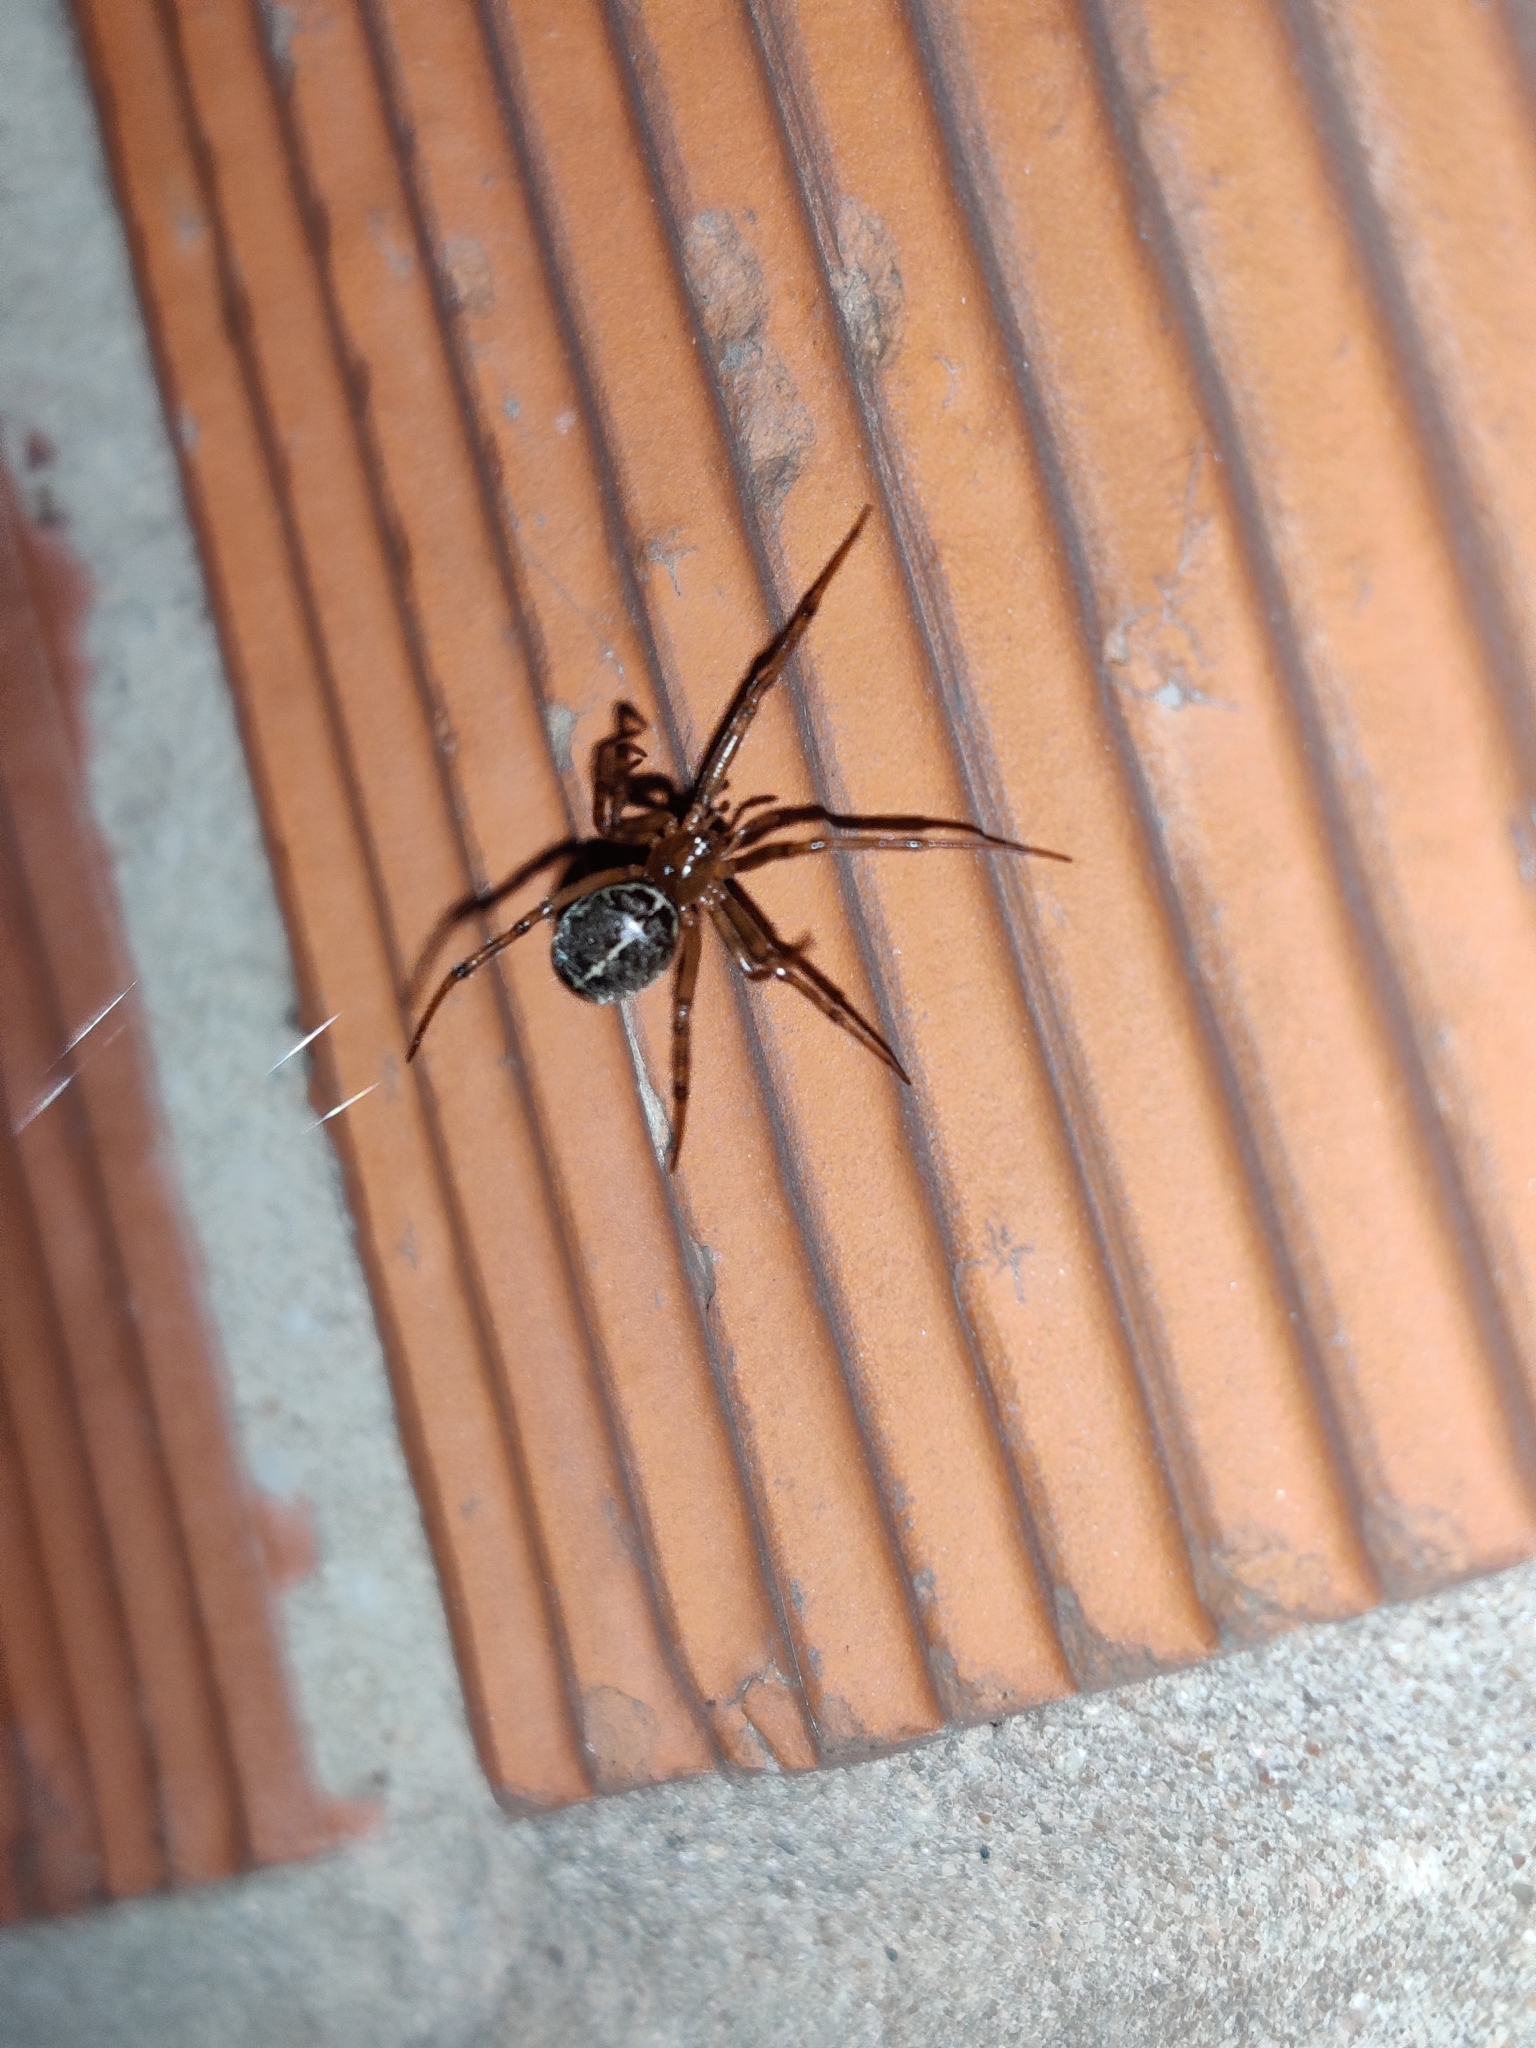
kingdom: Animalia
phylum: Arthropoda
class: Arachnida
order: Araneae
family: Theridiidae
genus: Steatoda
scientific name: Steatoda castanea
